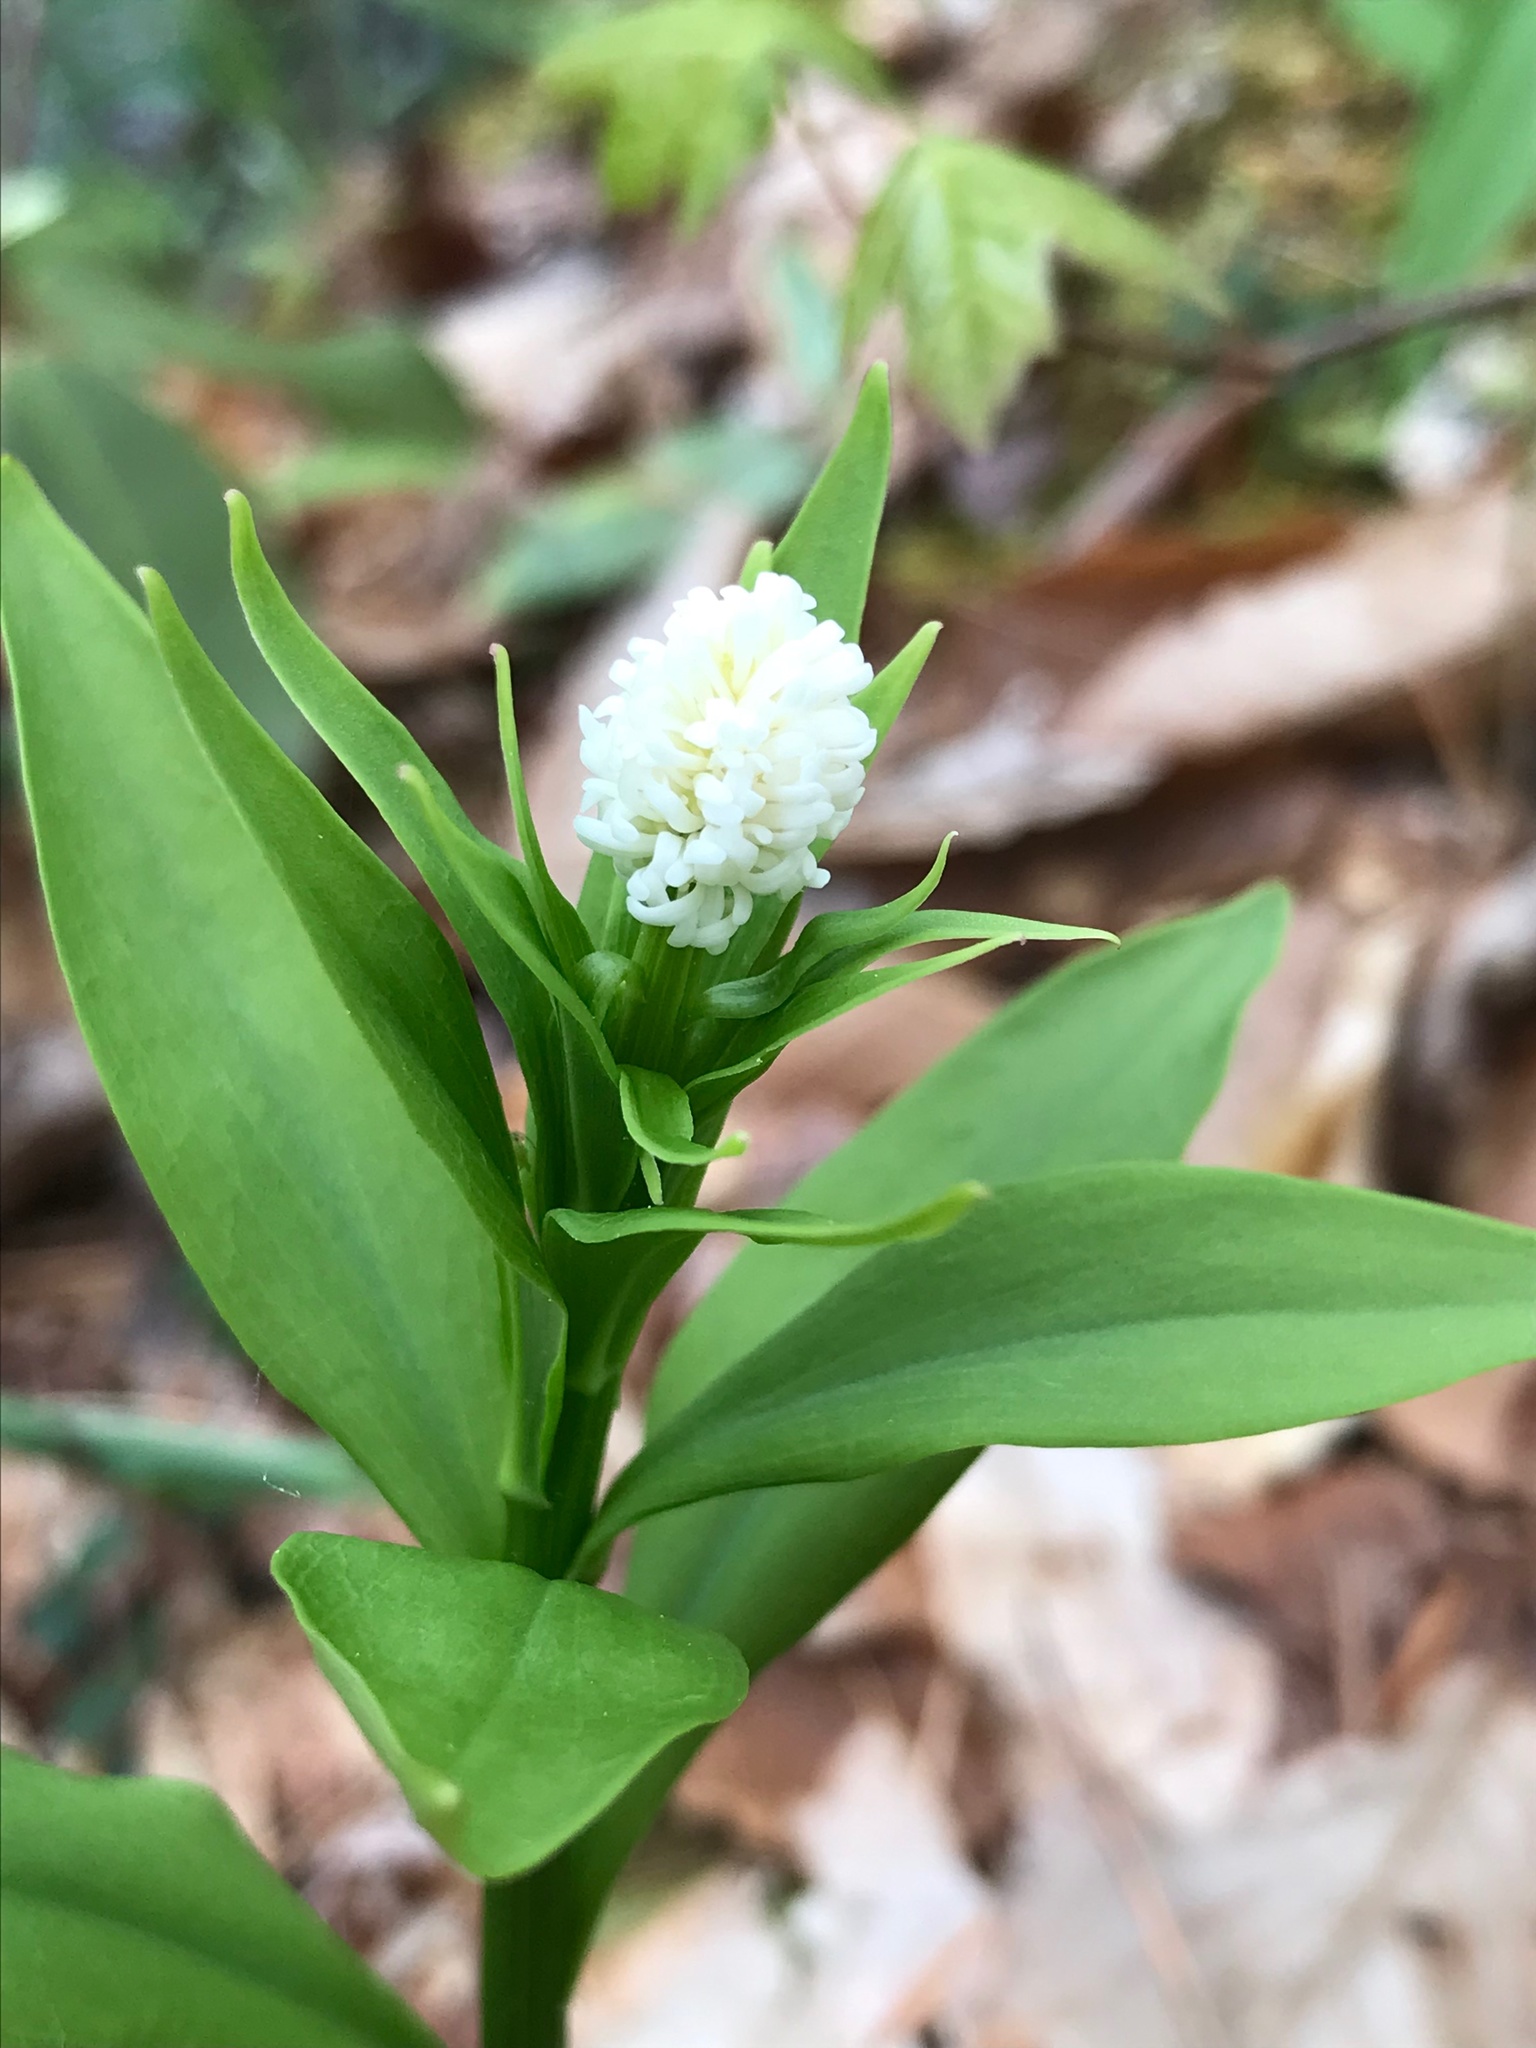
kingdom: Plantae
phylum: Tracheophyta
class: Liliopsida
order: Liliales
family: Melanthiaceae
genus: Chamaelirium
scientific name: Chamaelirium luteum
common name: Fairy-wand
